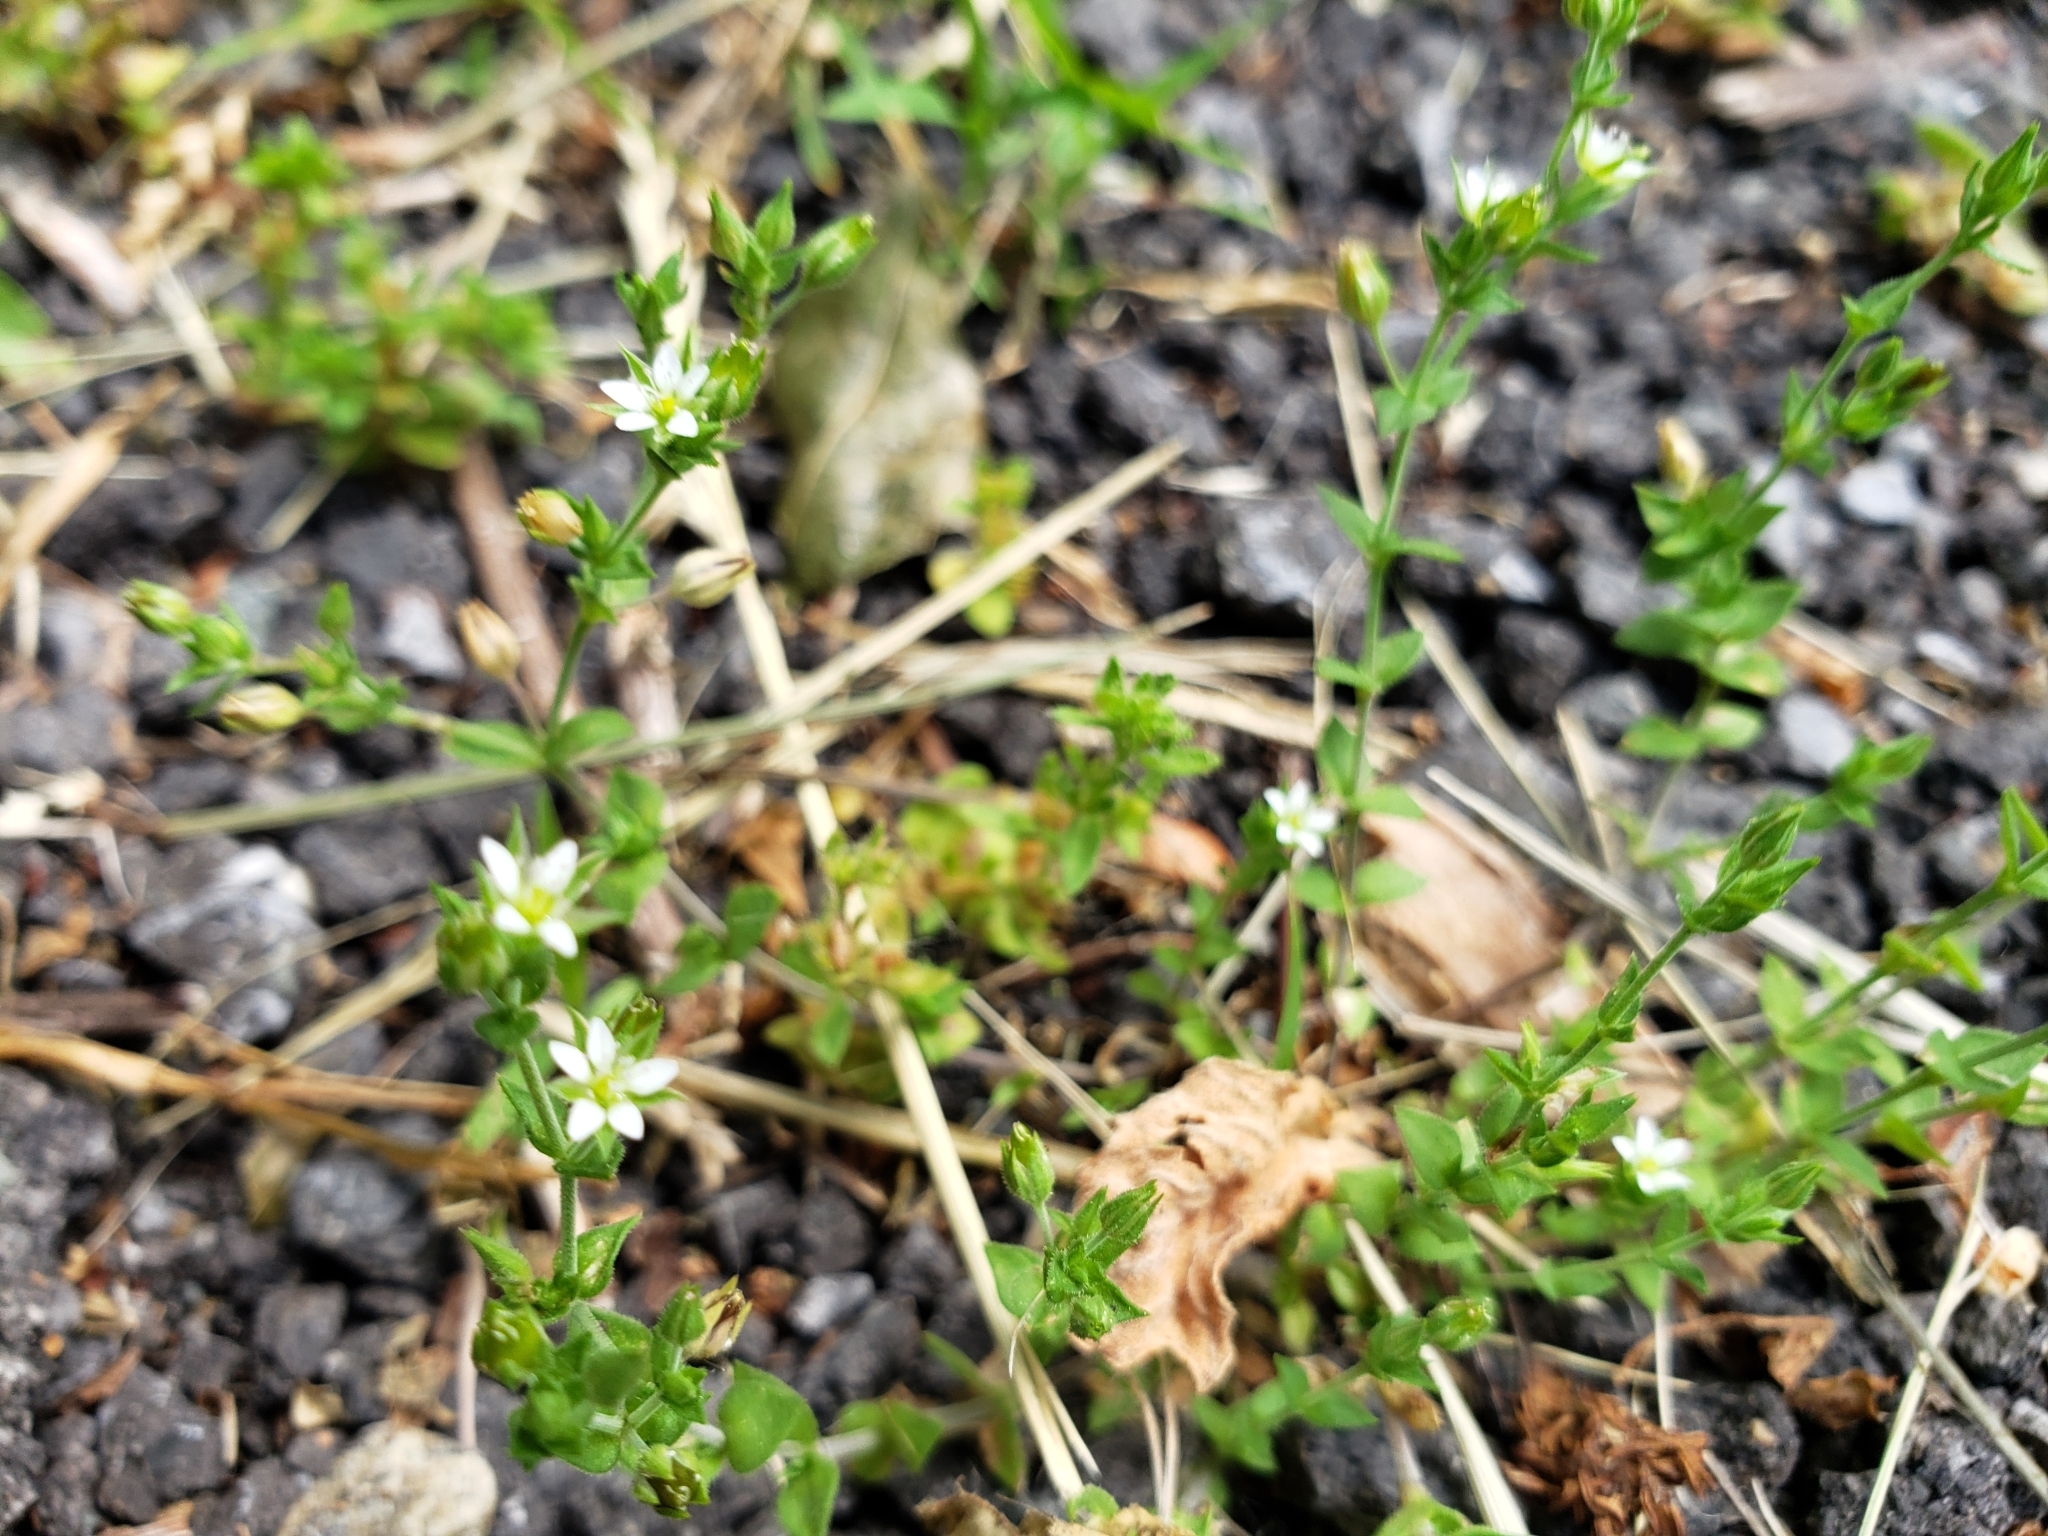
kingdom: Plantae
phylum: Tracheophyta
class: Magnoliopsida
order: Caryophyllales
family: Caryophyllaceae
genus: Arenaria
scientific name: Arenaria serpyllifolia
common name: Thyme-leaved sandwort
